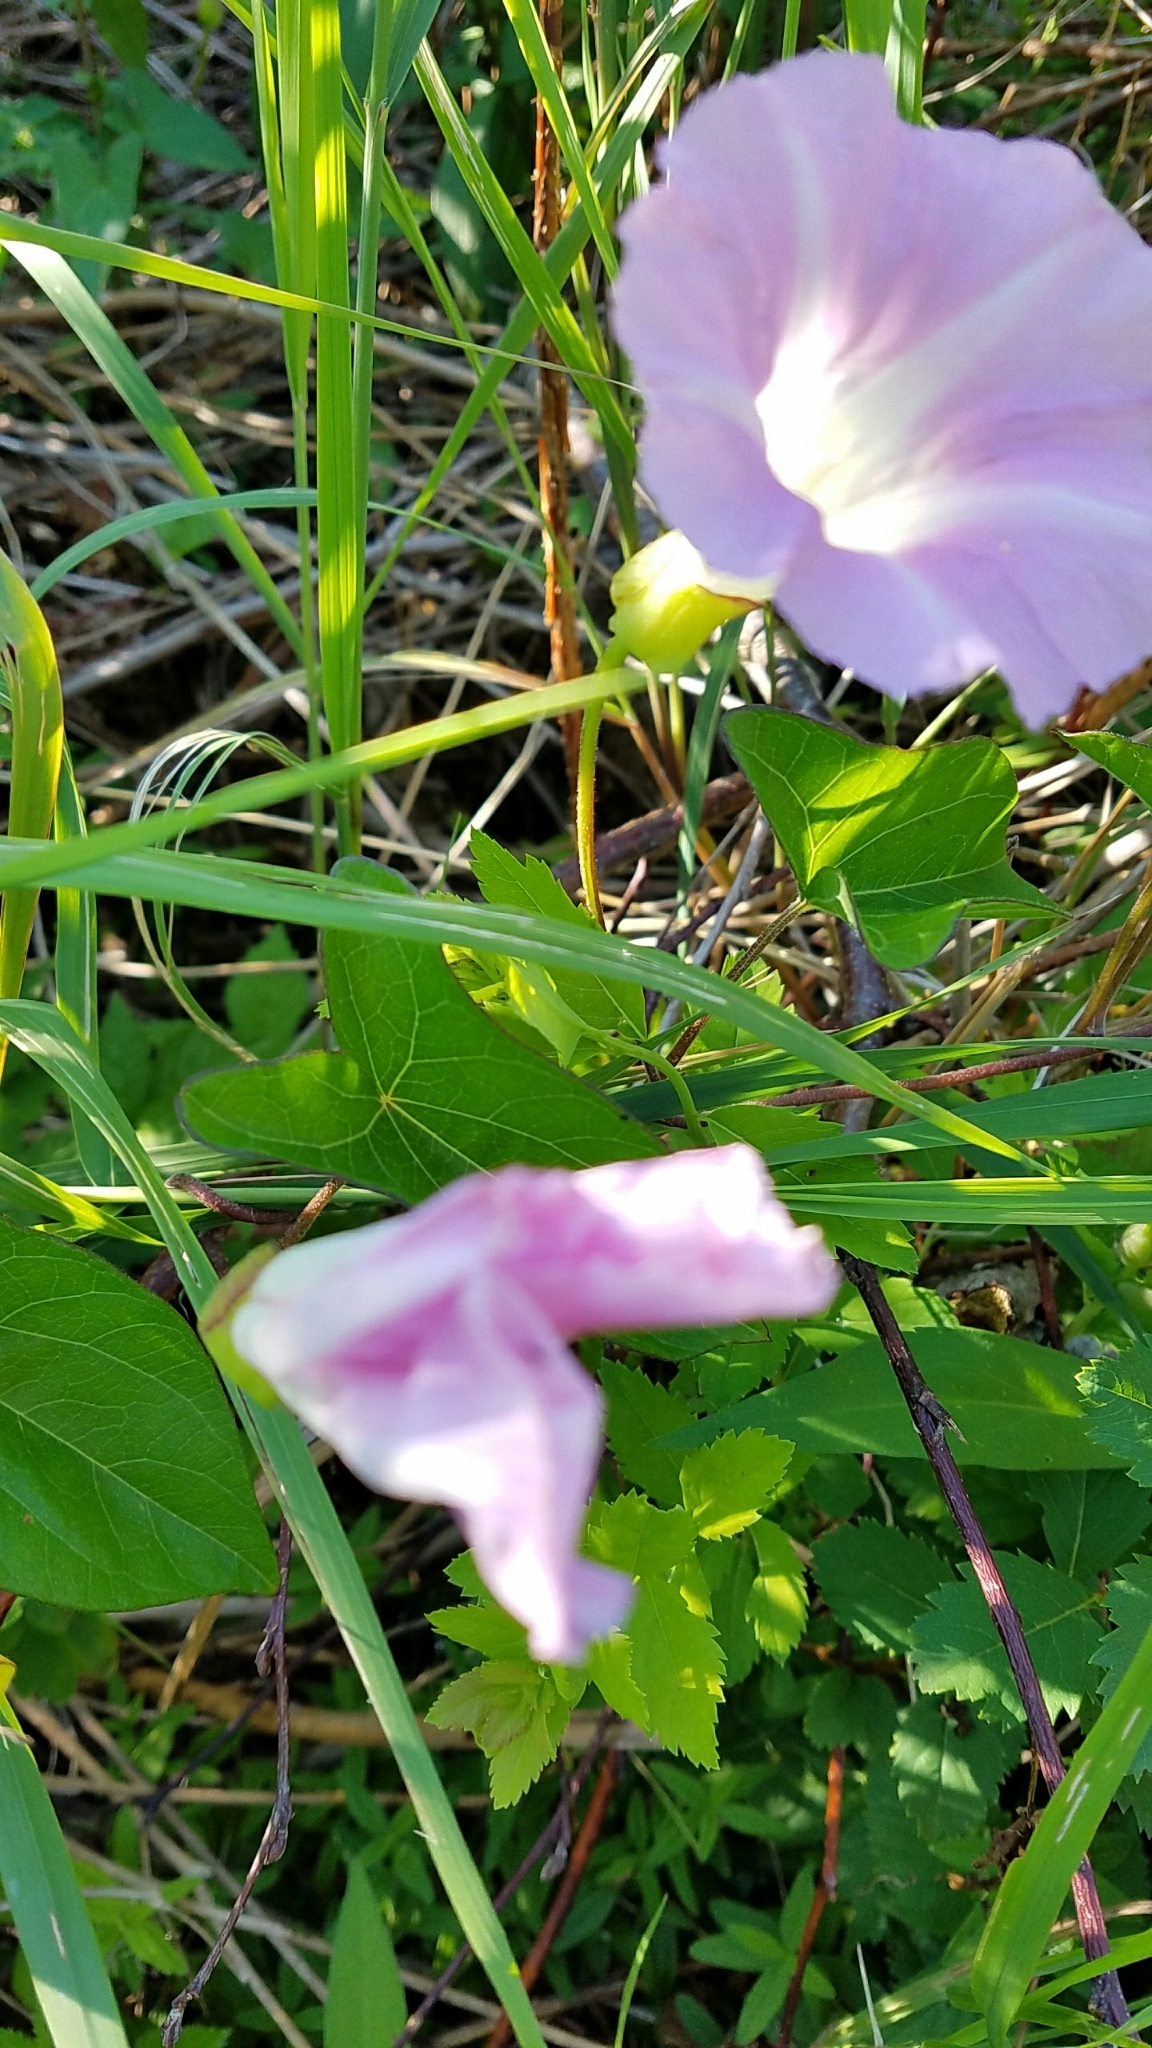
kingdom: Plantae
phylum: Tracheophyta
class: Magnoliopsida
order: Solanales
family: Convolvulaceae
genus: Calystegia
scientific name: Calystegia sepium
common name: Hedge bindweed
